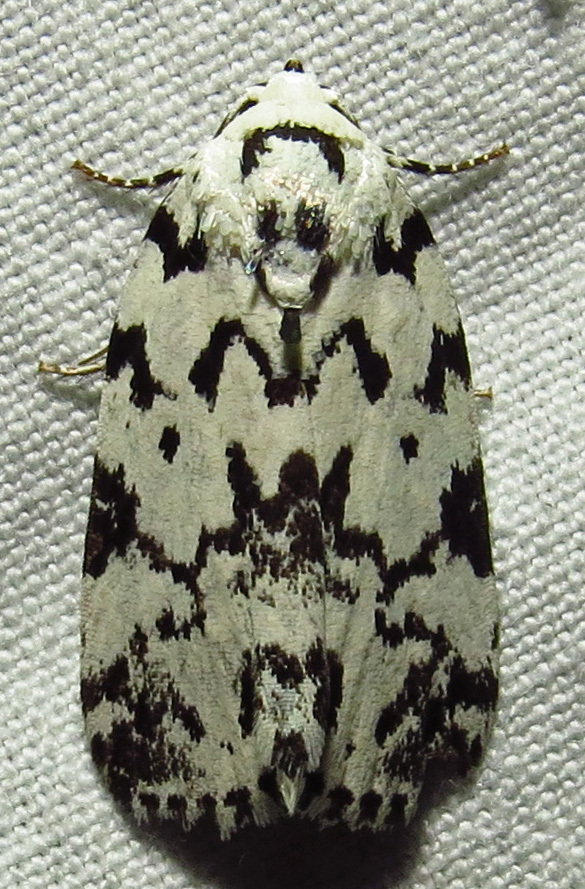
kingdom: Animalia
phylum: Arthropoda
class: Insecta
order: Lepidoptera
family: Noctuidae
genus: Polygrammate
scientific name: Polygrammate hebraeicum
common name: Hebrew moth
